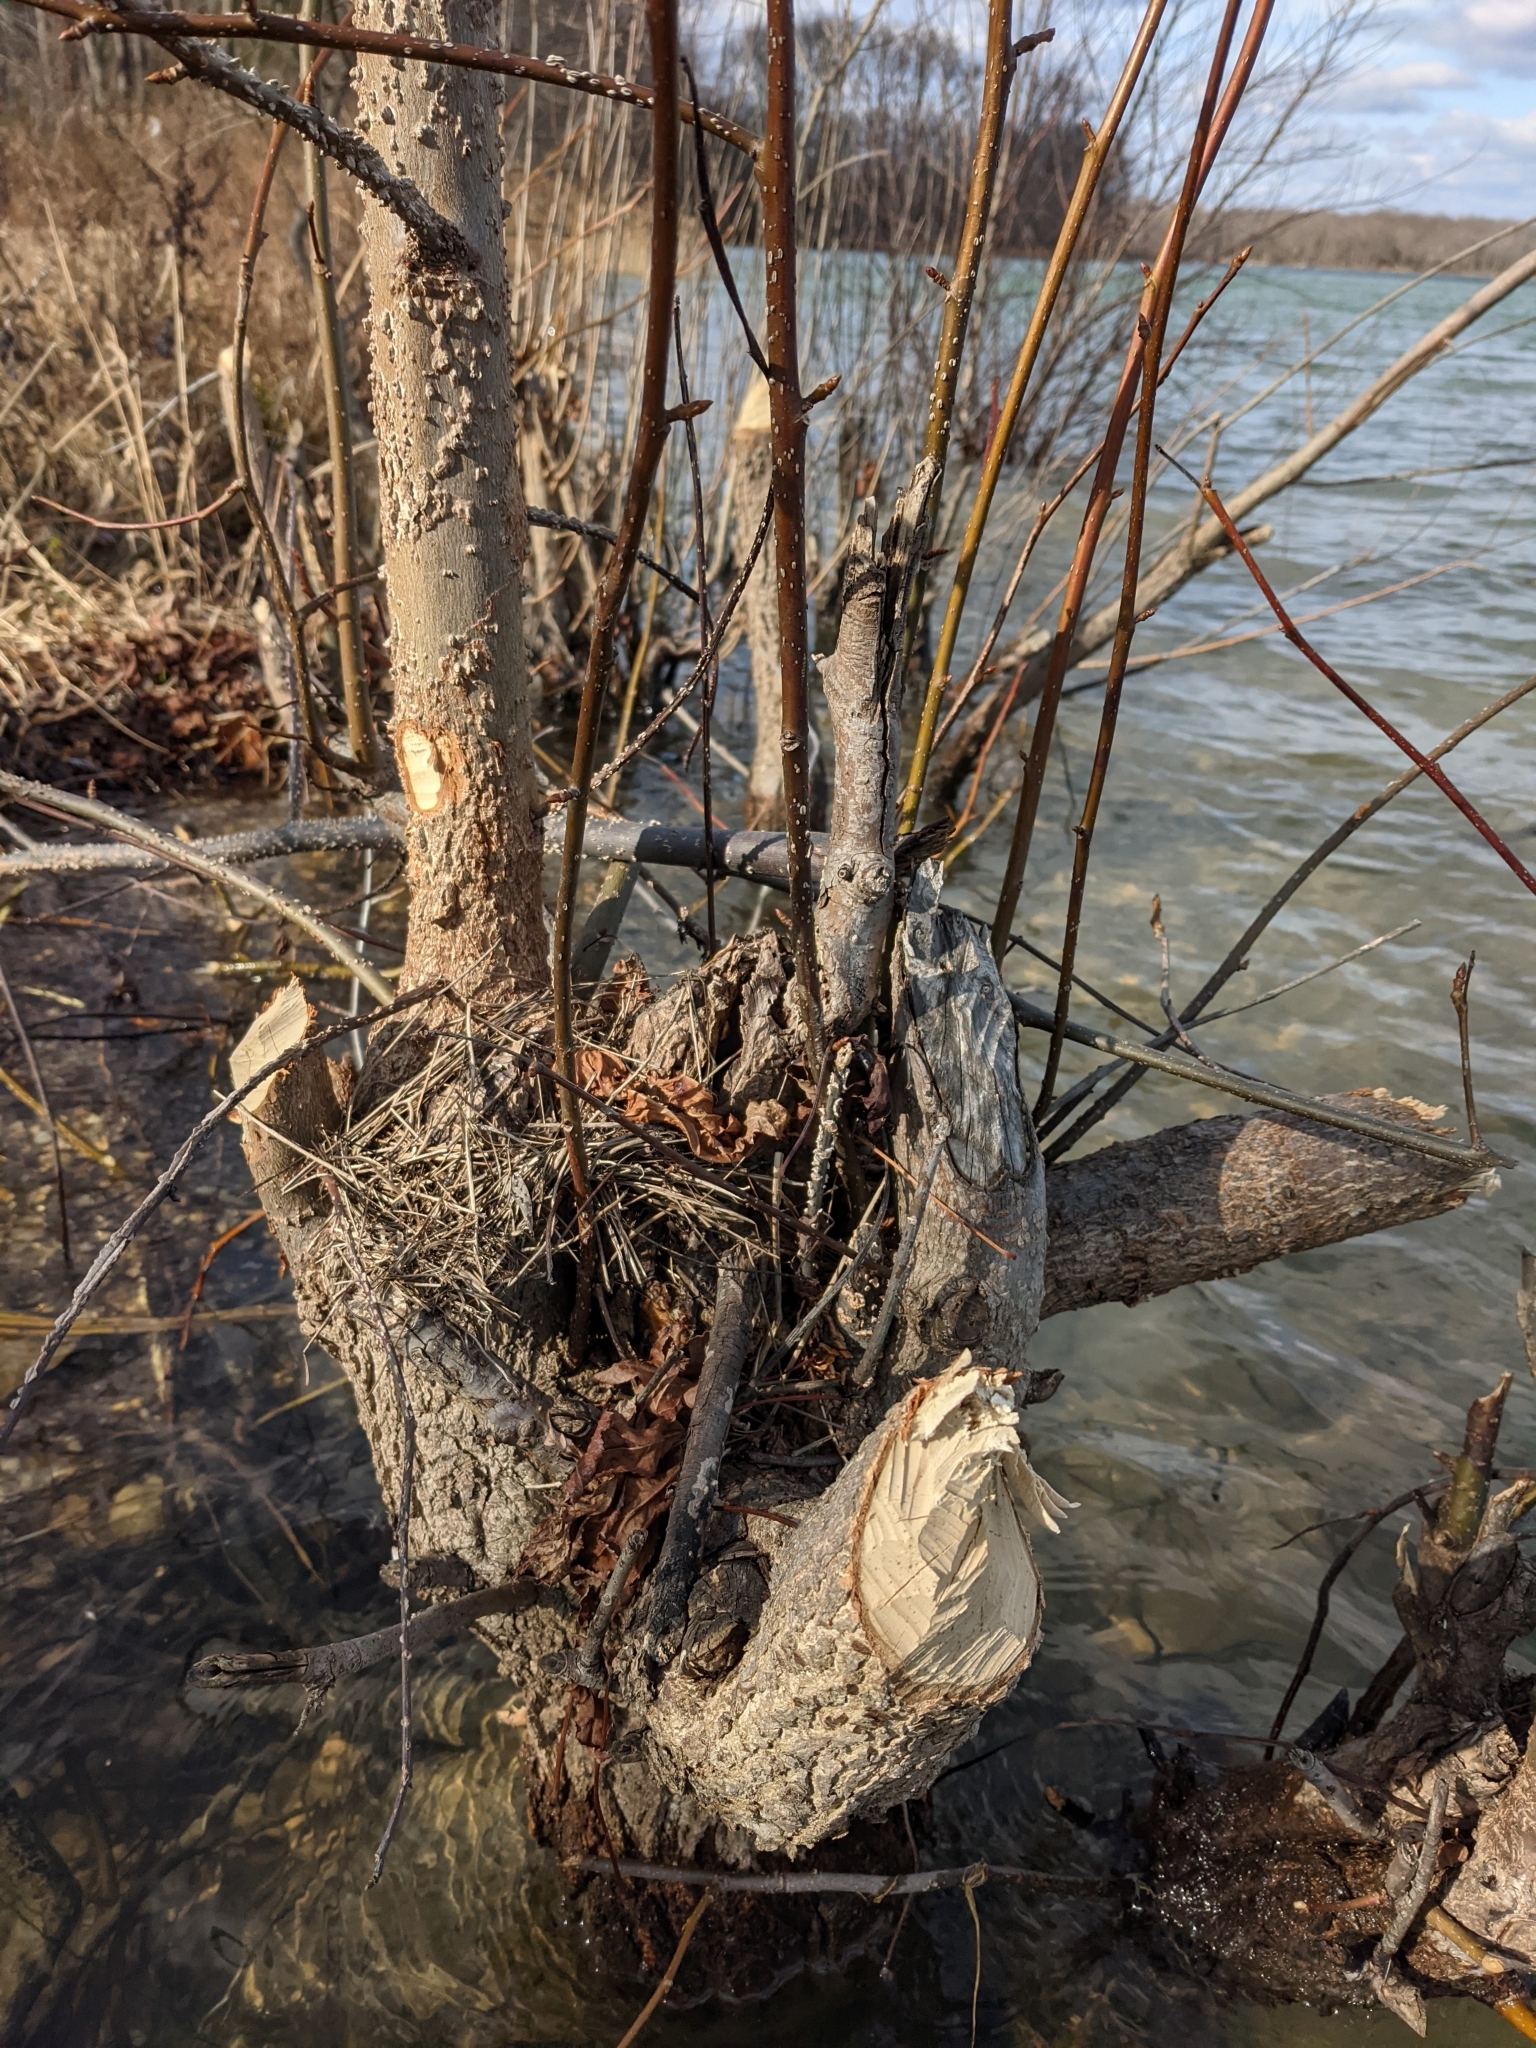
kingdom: Animalia
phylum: Chordata
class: Mammalia
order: Rodentia
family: Castoridae
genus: Castor
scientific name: Castor canadensis
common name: American beaver
